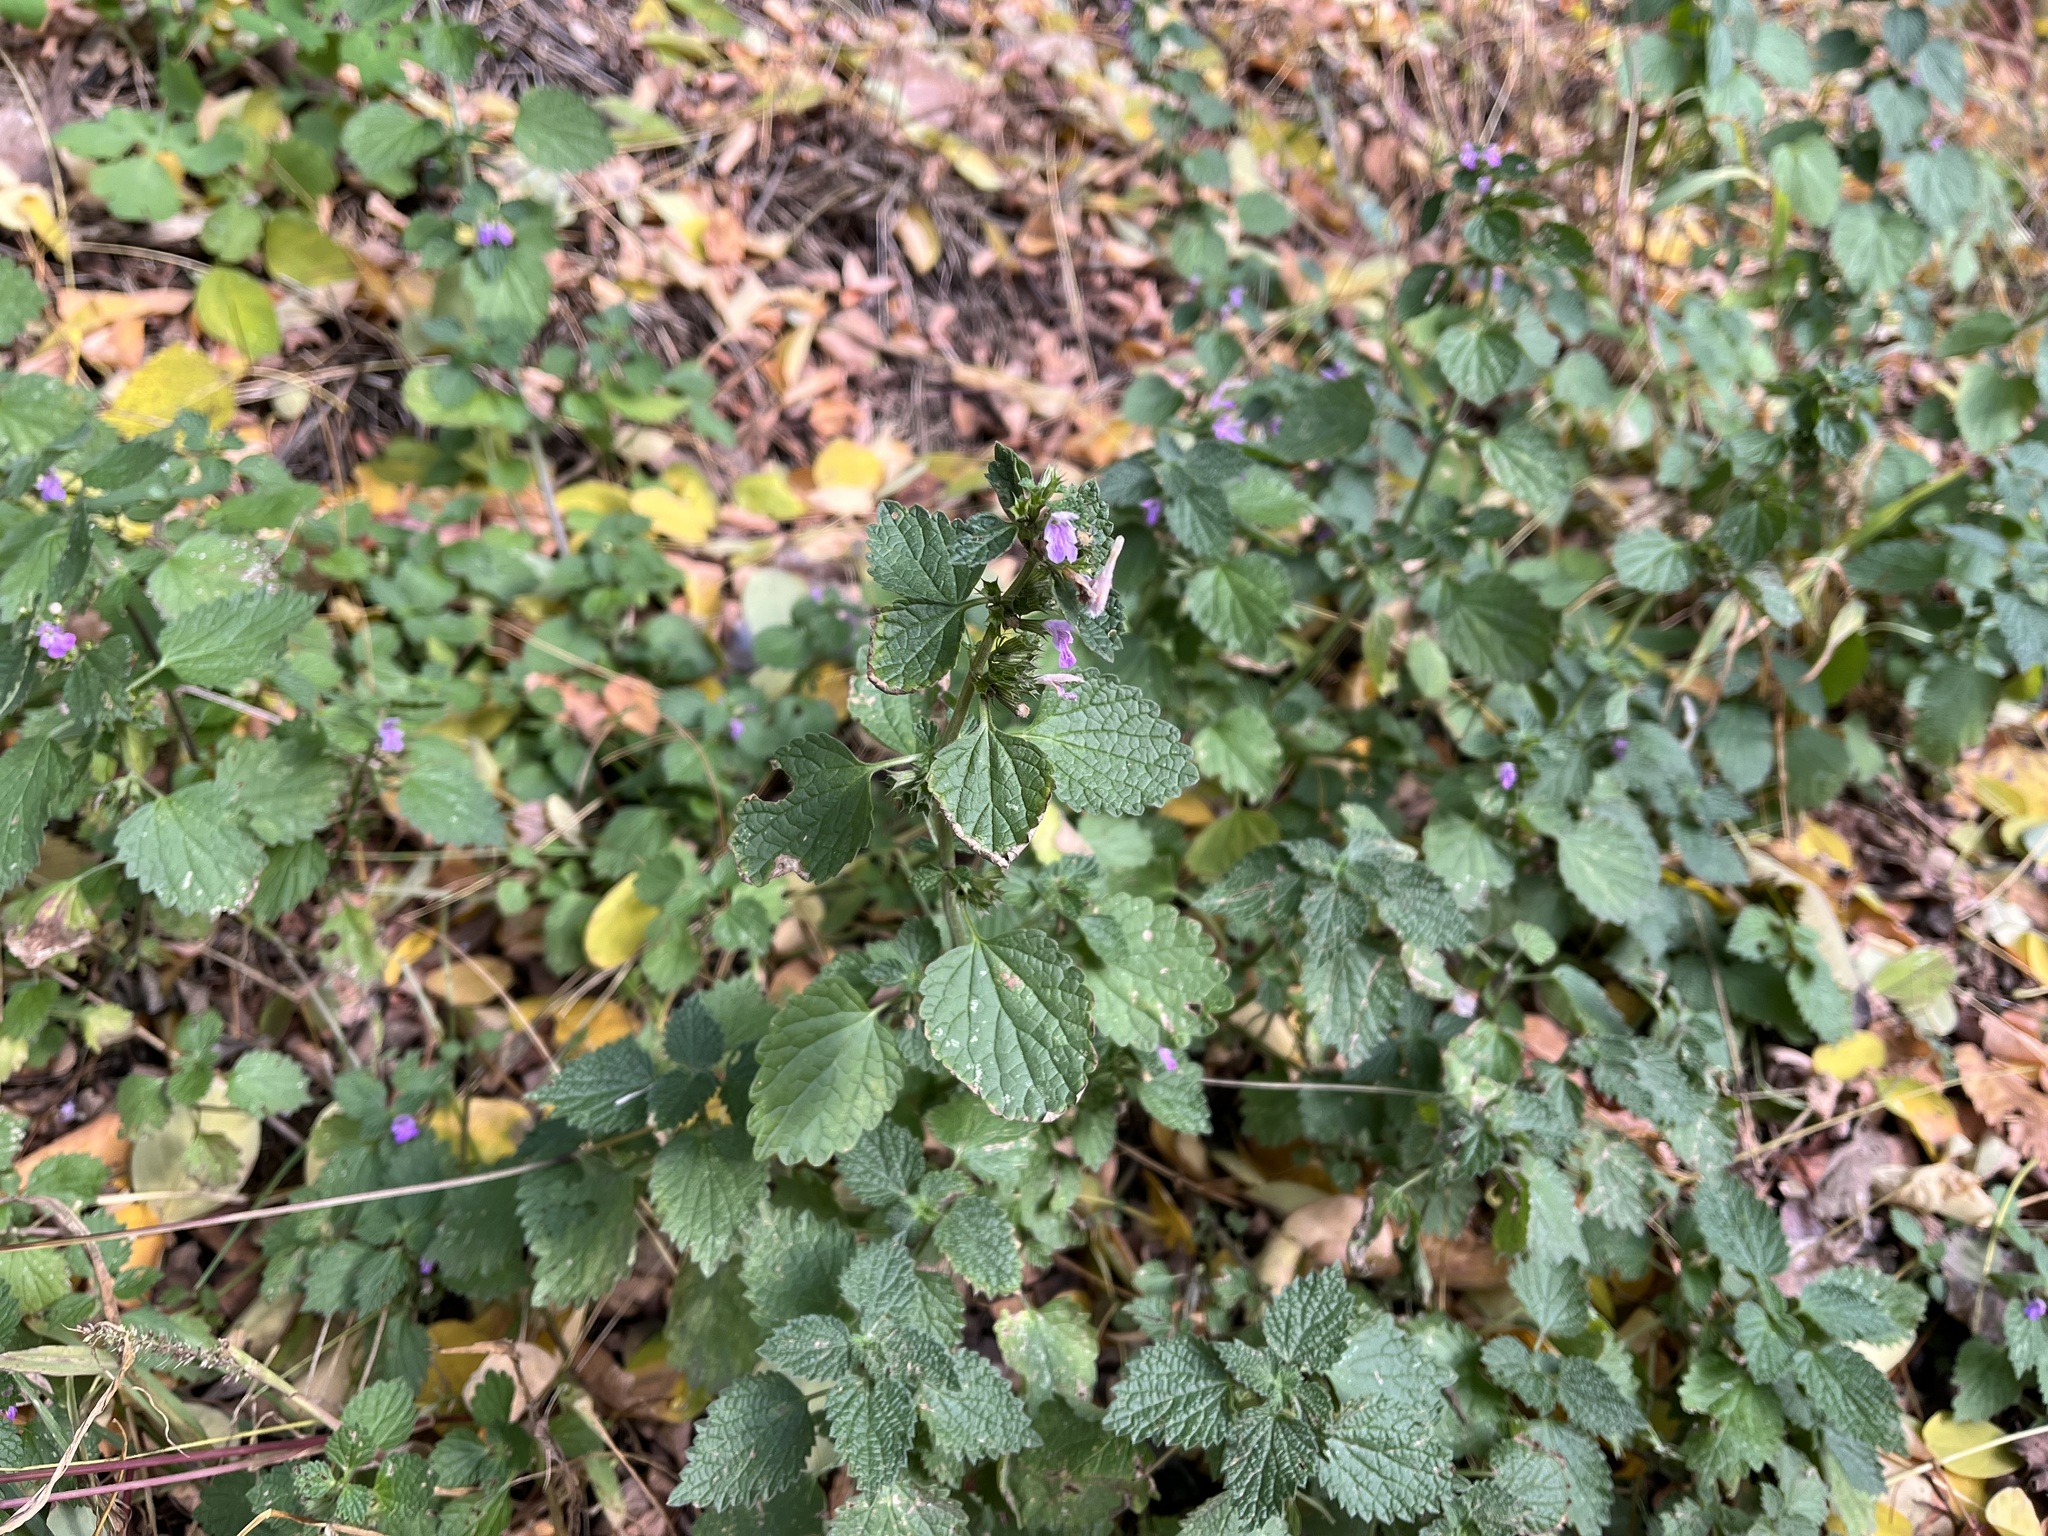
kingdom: Plantae
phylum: Tracheophyta
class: Magnoliopsida
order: Lamiales
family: Lamiaceae
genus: Ballota
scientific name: Ballota nigra
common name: Black horehound
